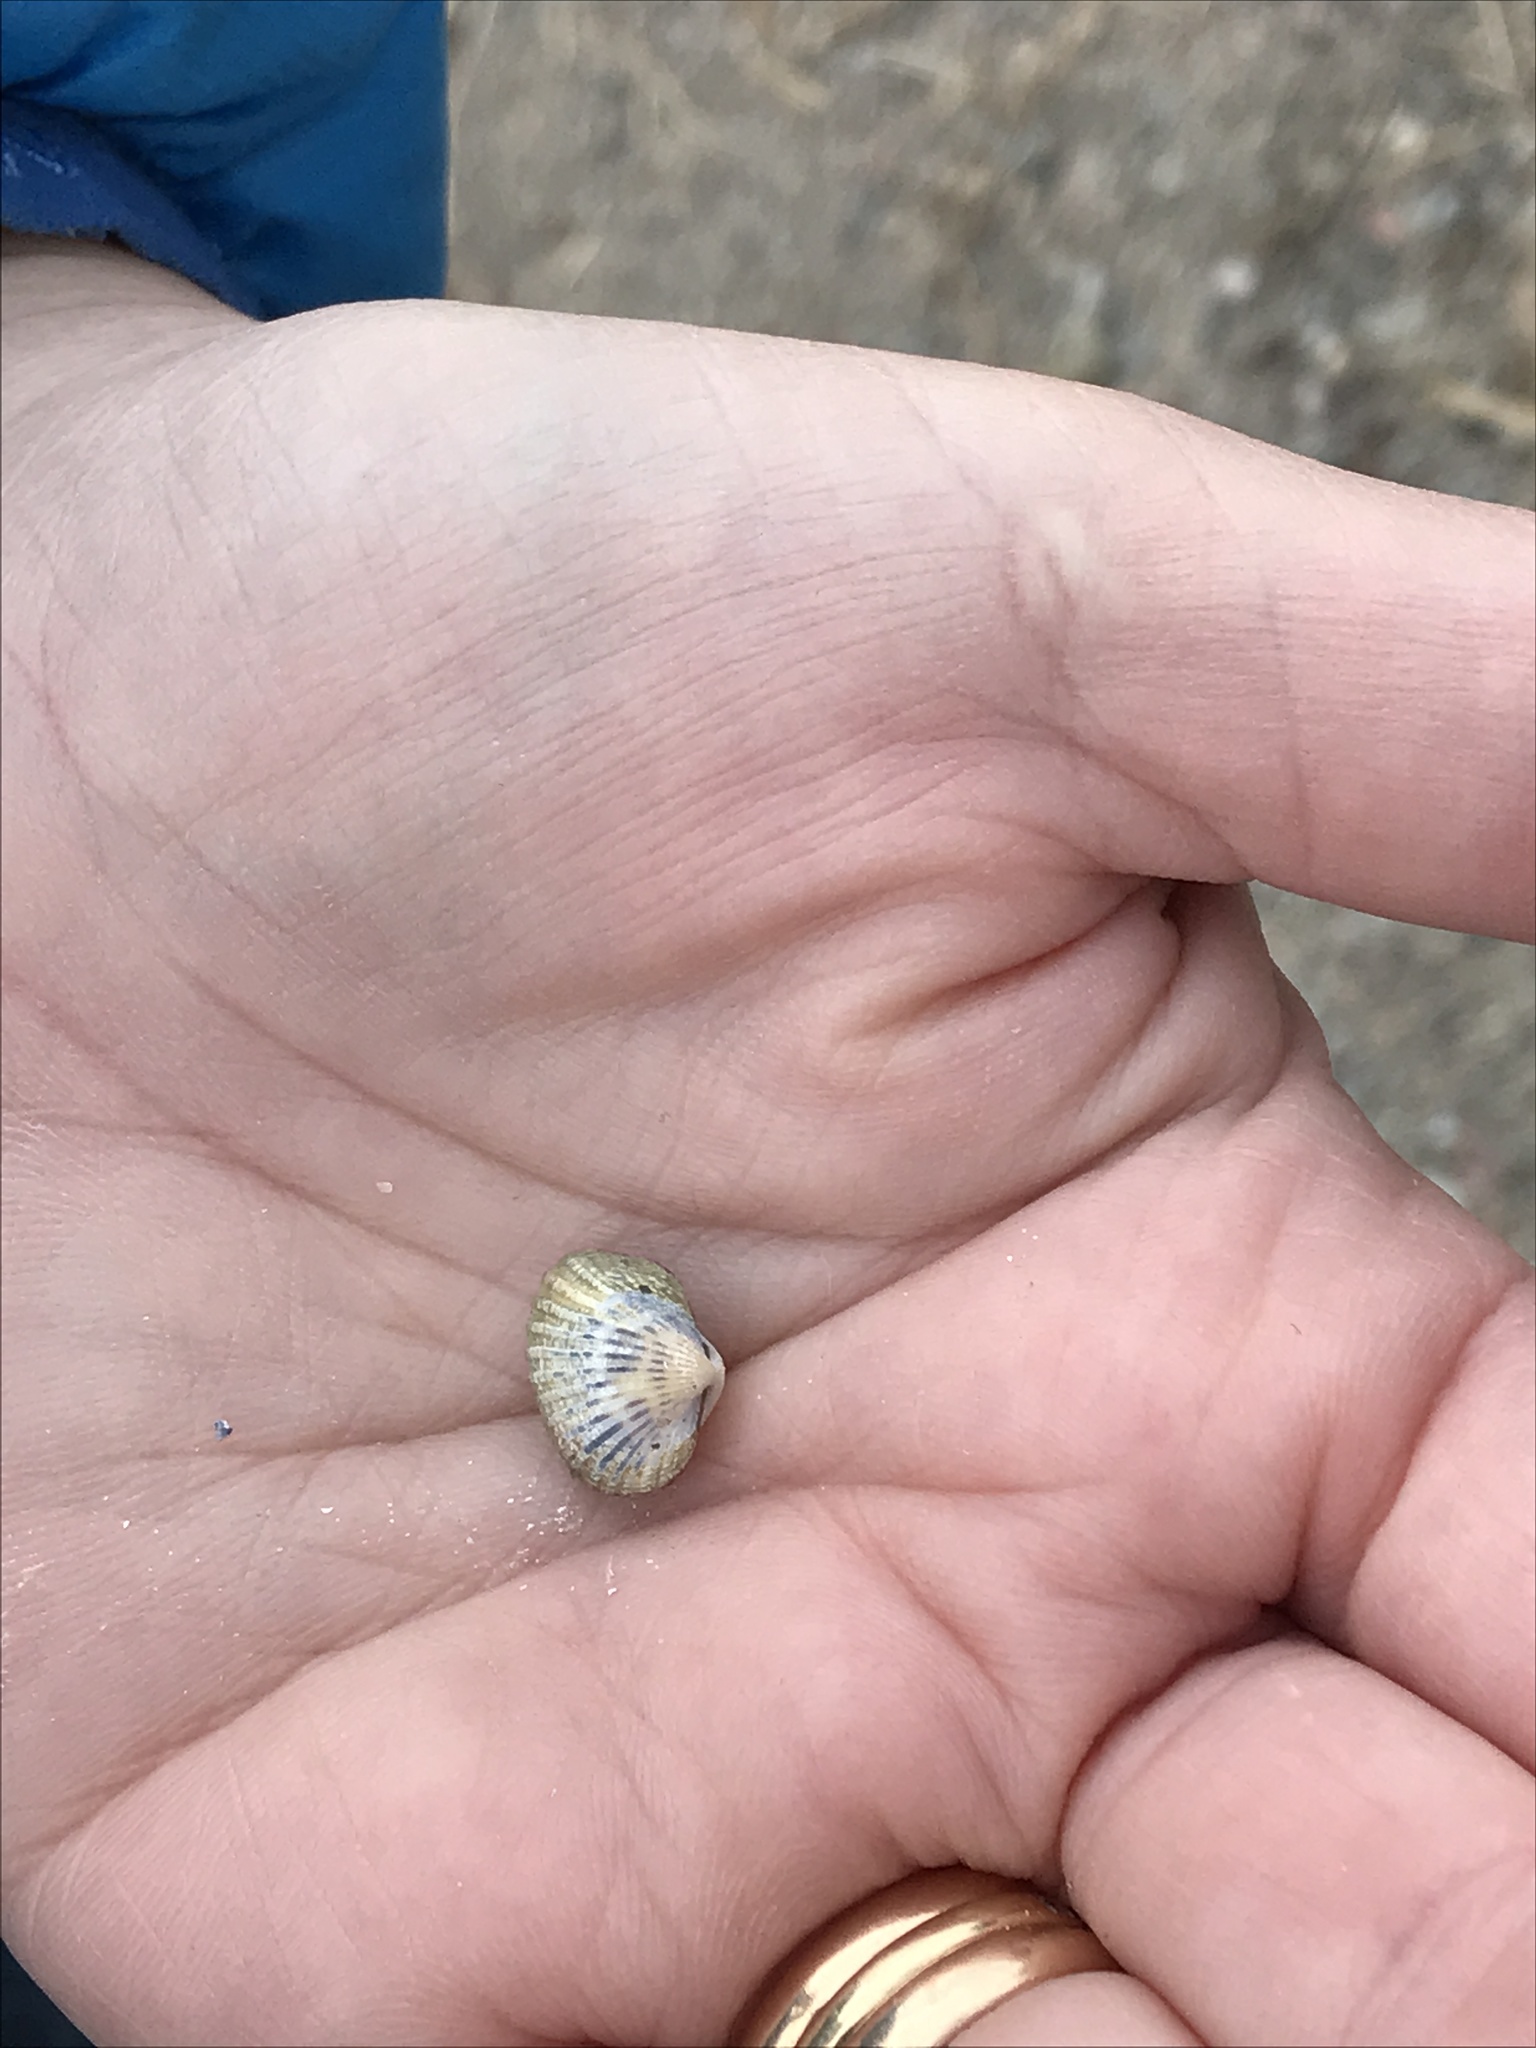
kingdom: Animalia
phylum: Mollusca
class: Bivalvia
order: Cardiida
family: Cardiidae
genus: Cerastoderma
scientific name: Cerastoderma glaucum
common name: Lagoon cockle
